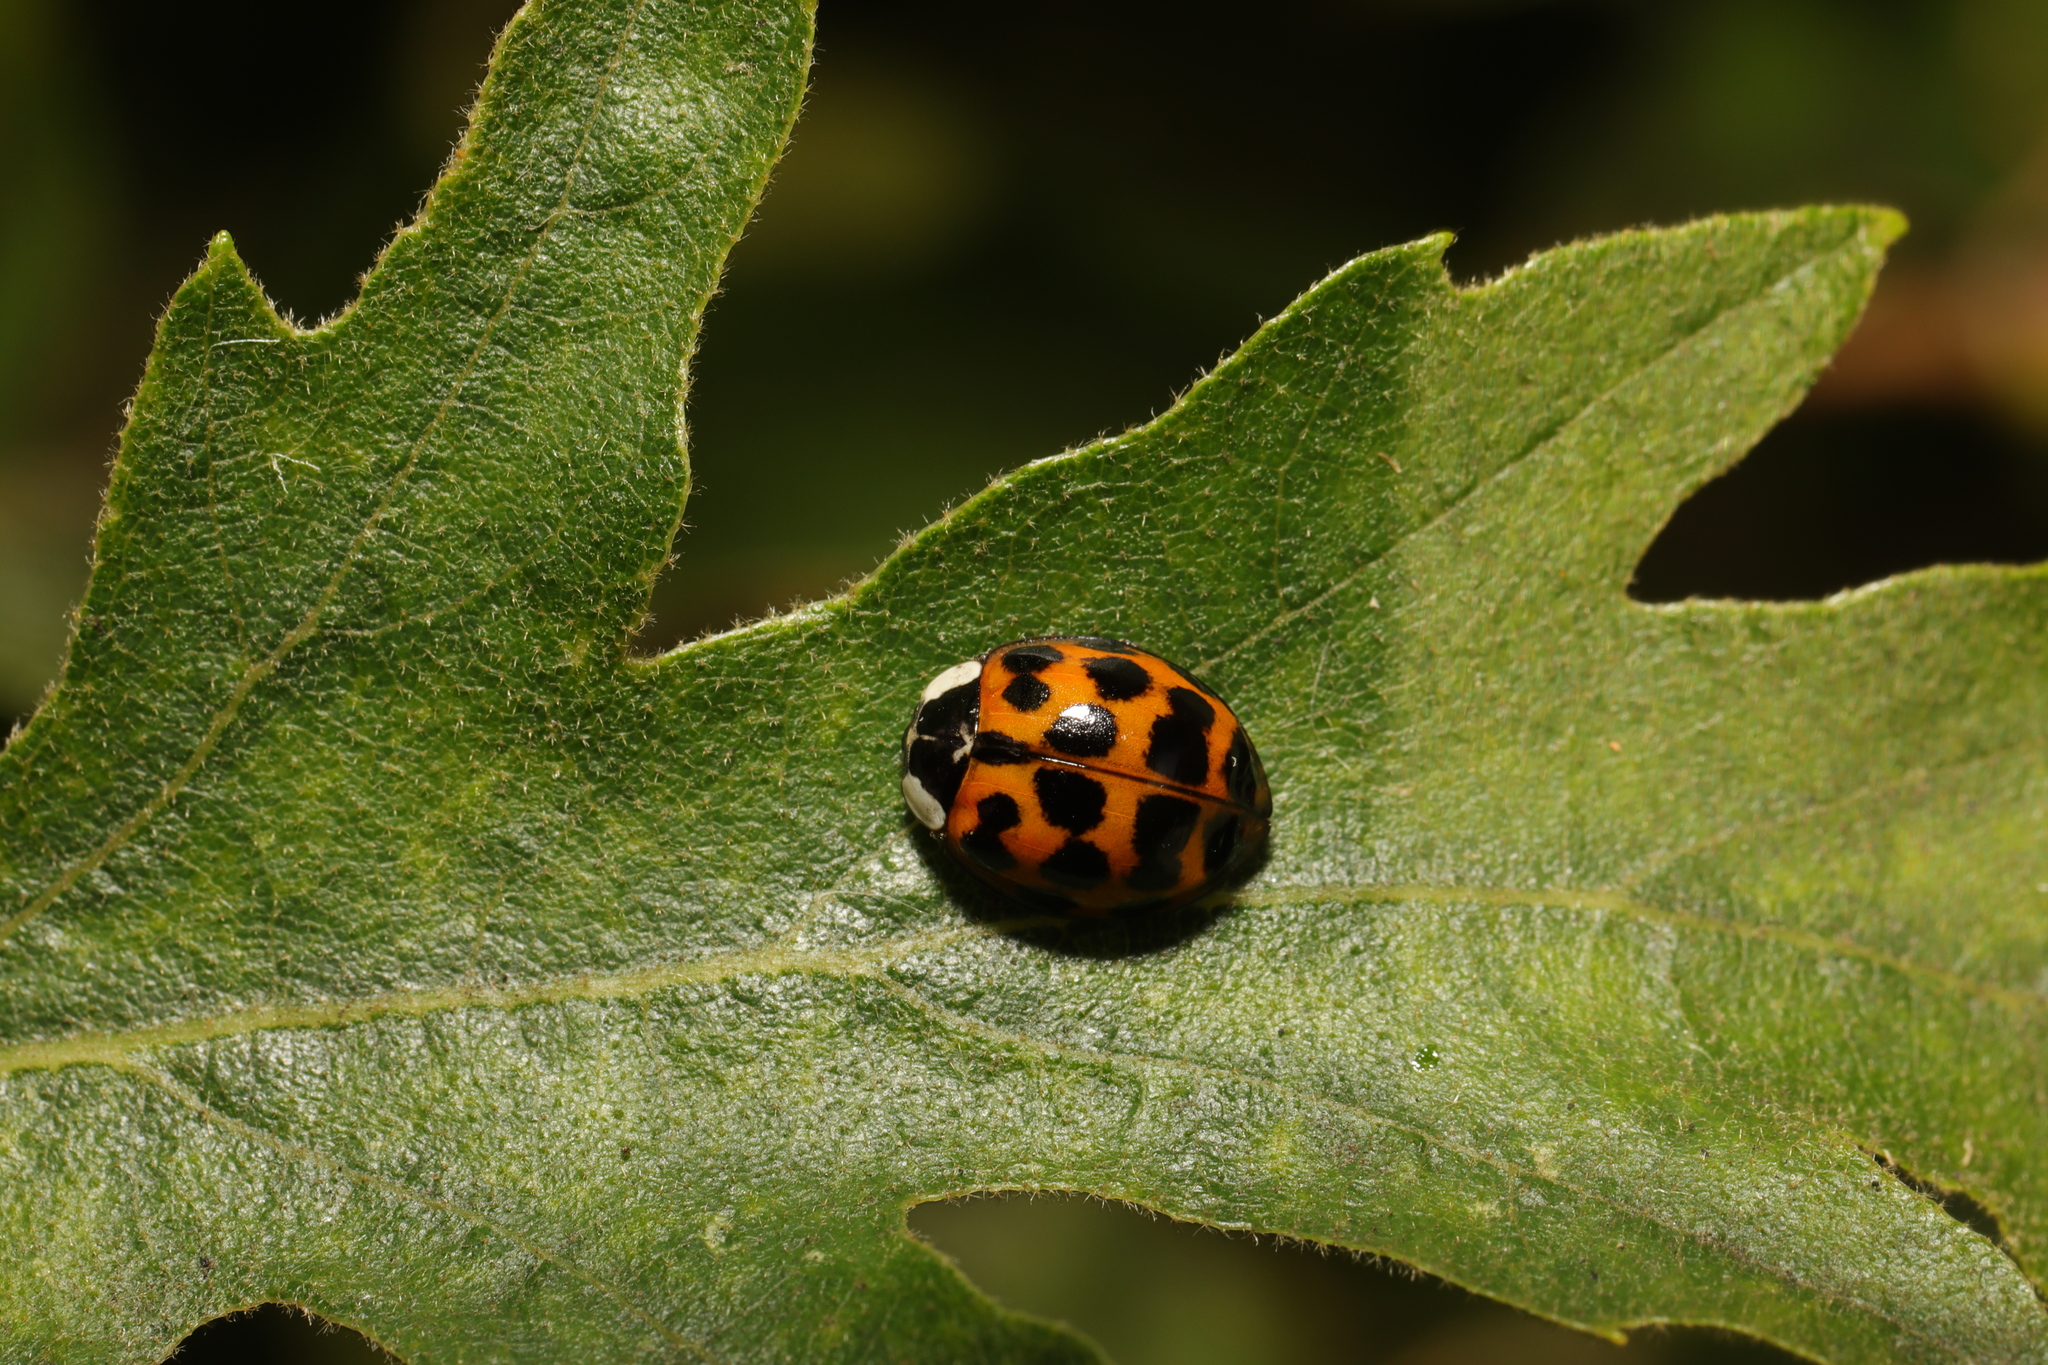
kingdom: Animalia
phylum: Arthropoda
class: Insecta
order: Coleoptera
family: Coccinellidae
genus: Harmonia
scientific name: Harmonia axyridis
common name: Harlequin ladybird
